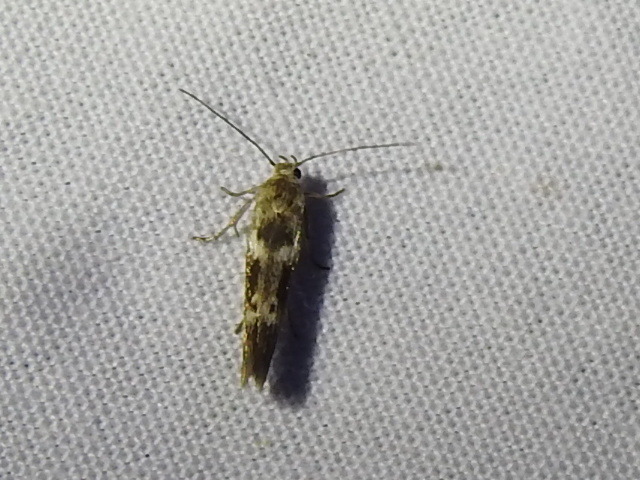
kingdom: Animalia
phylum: Arthropoda
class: Insecta
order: Lepidoptera
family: Scythrididae
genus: Scythris
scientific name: Scythris trivinctella
